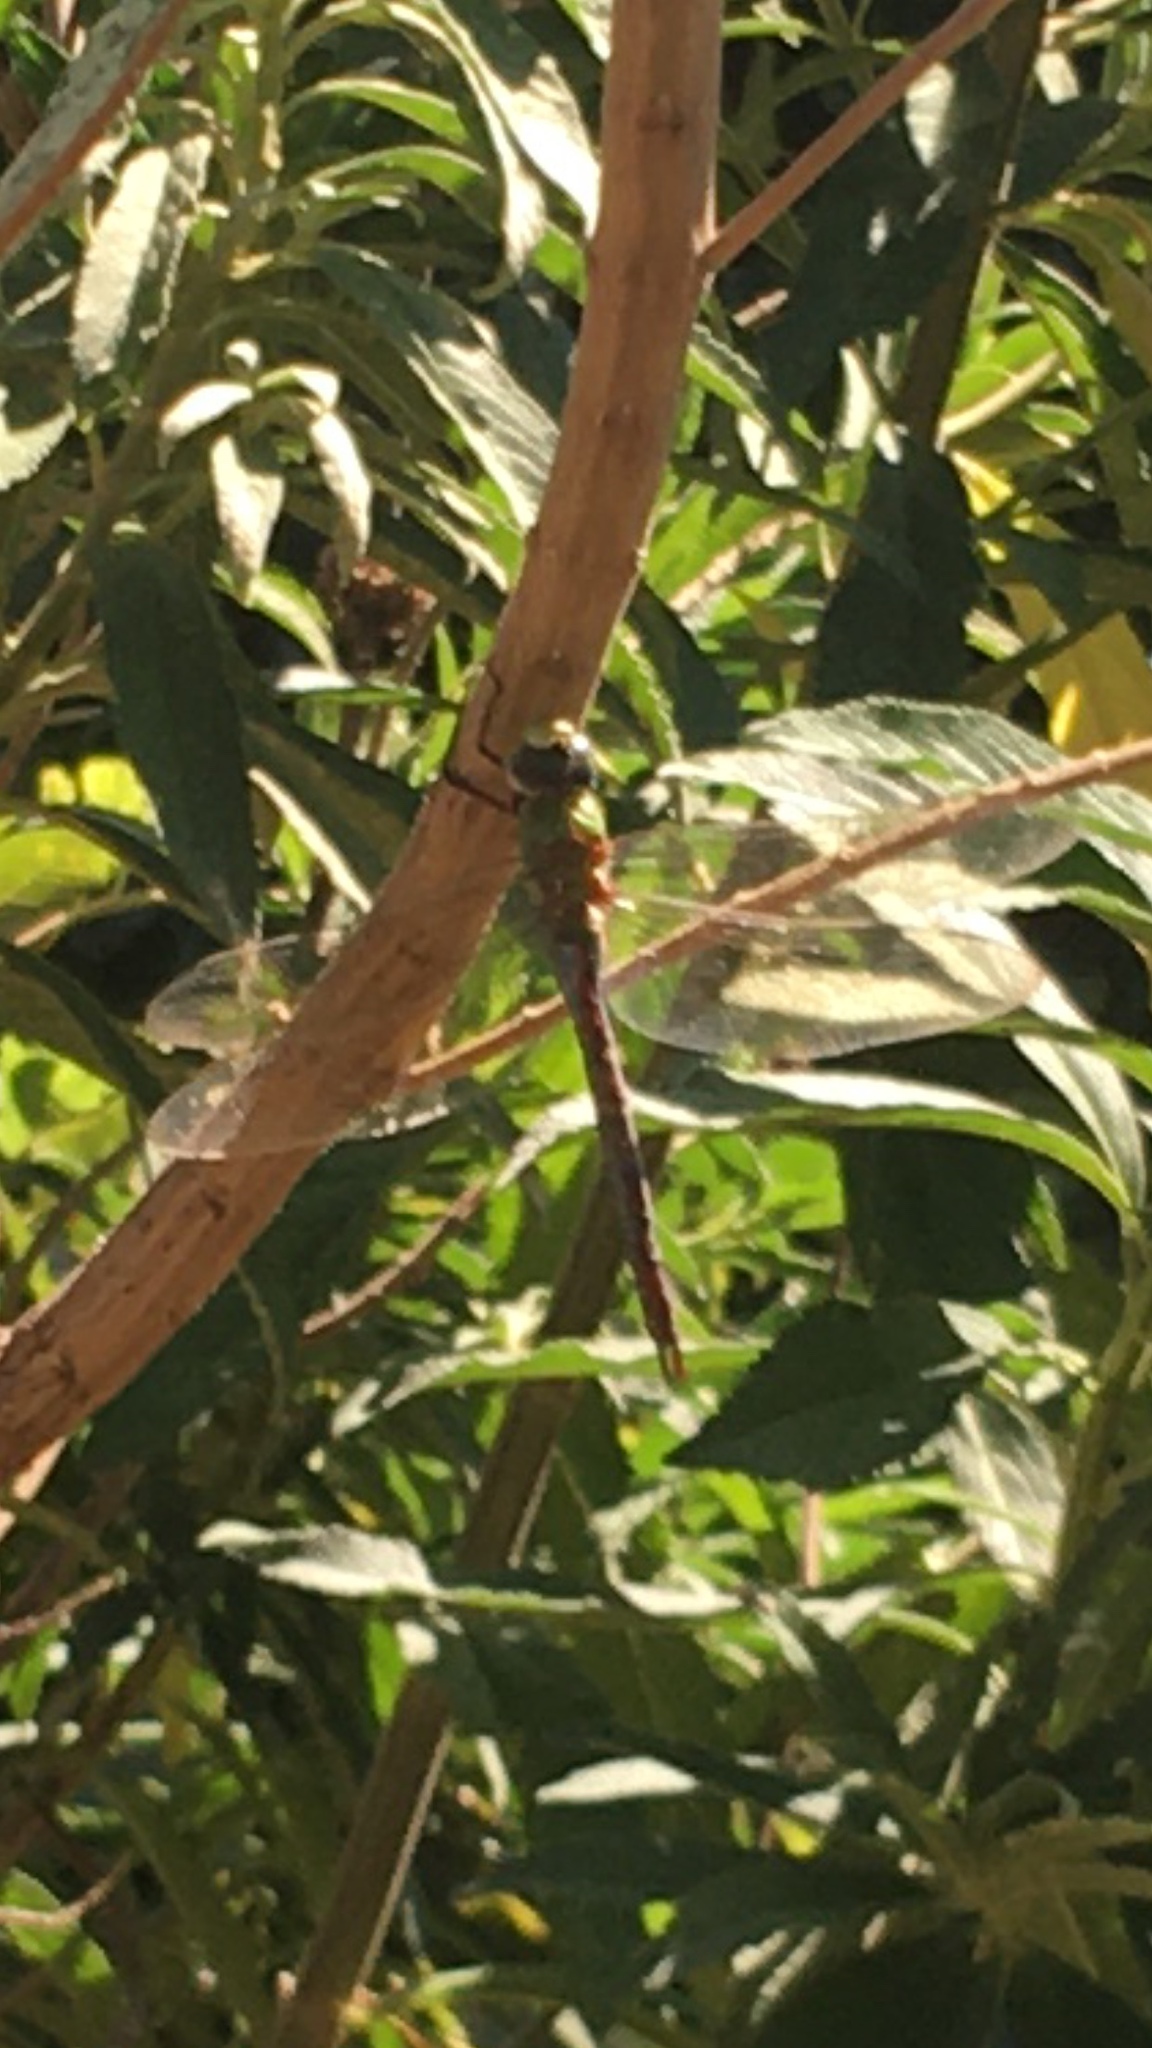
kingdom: Animalia
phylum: Arthropoda
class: Insecta
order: Odonata
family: Aeshnidae
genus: Anax
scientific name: Anax imperator
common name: Emperor dragonfly
